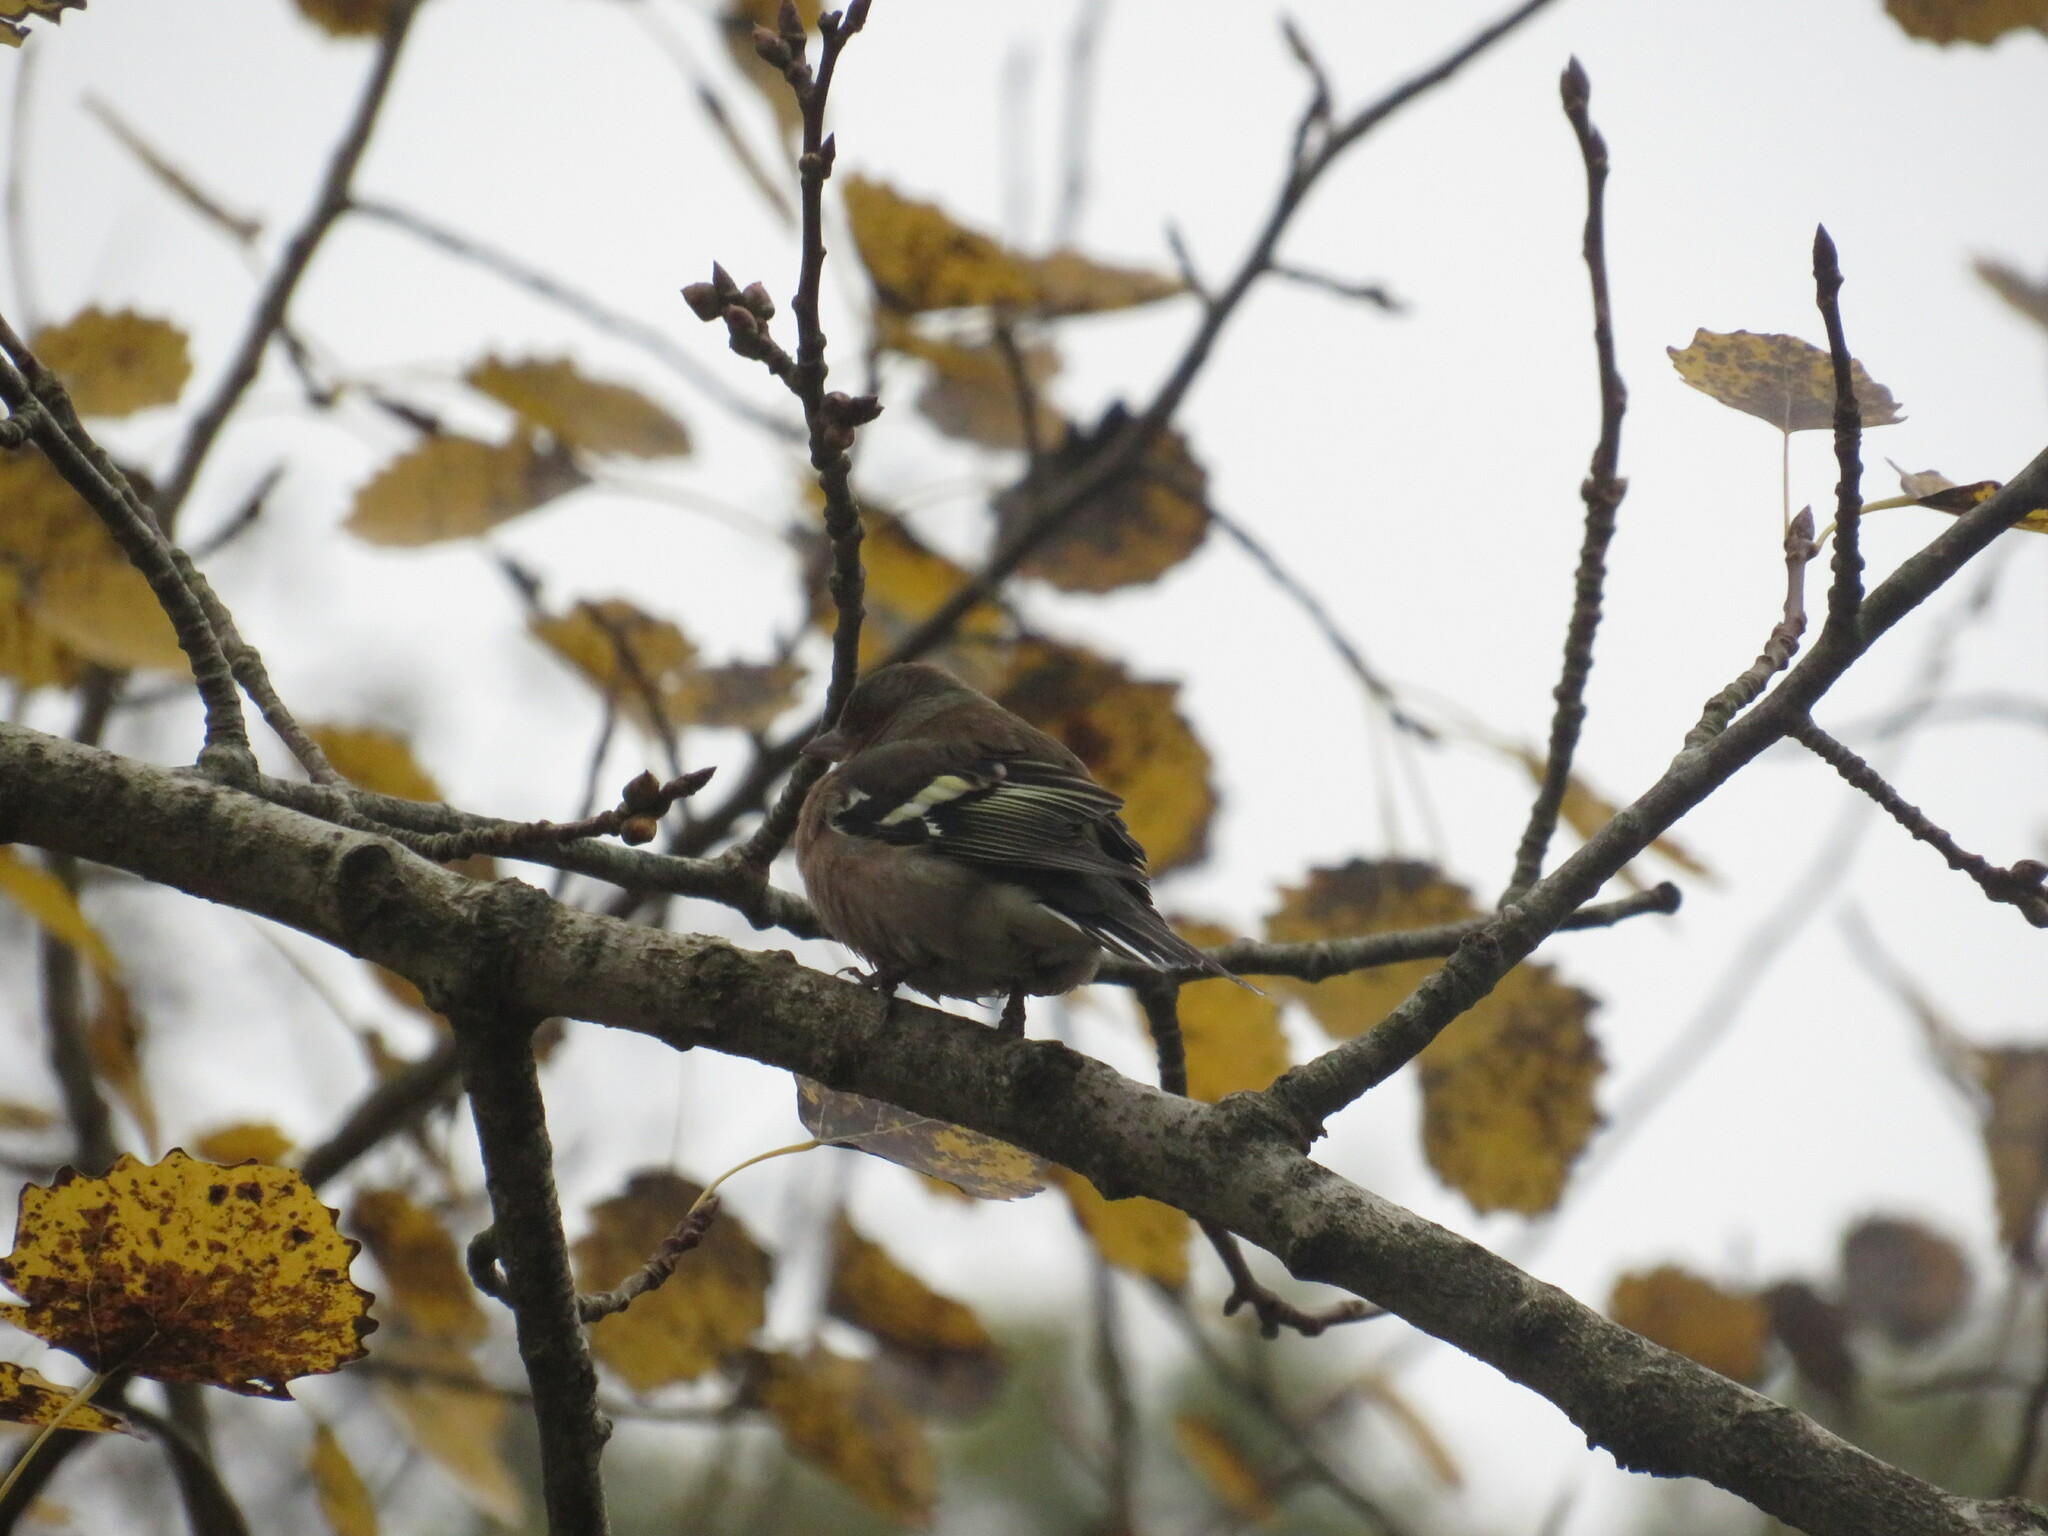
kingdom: Animalia
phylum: Chordata
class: Aves
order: Passeriformes
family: Fringillidae
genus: Fringilla
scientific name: Fringilla coelebs
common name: Common chaffinch
